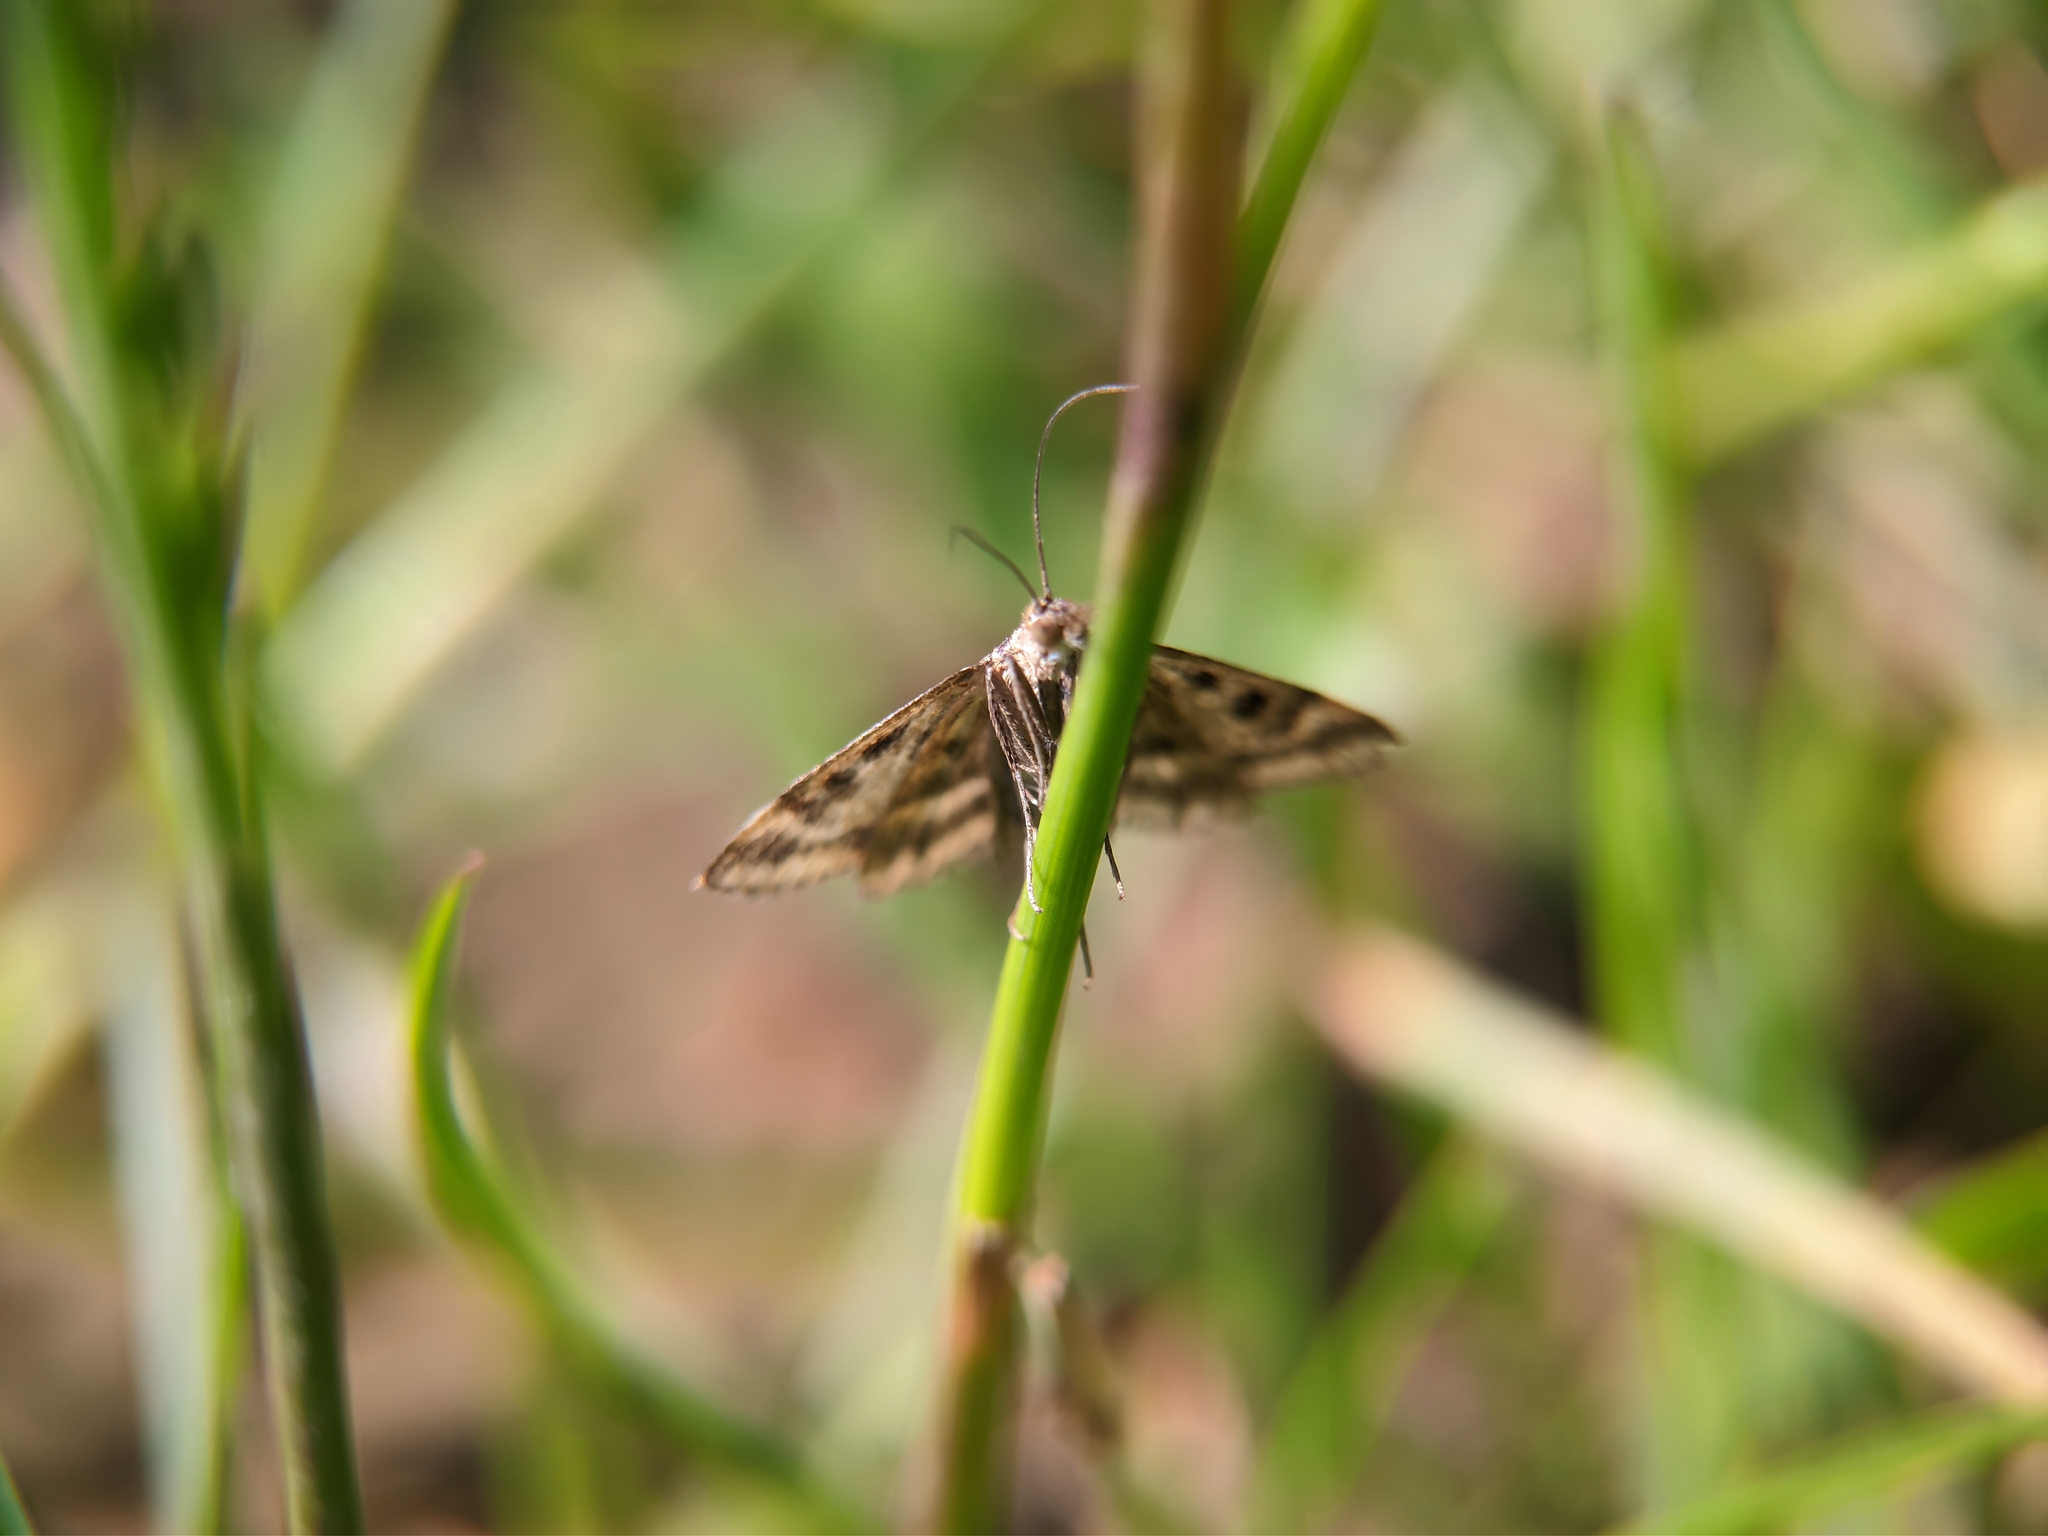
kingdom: Animalia
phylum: Arthropoda
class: Insecta
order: Lepidoptera
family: Crambidae
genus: Pyrausta
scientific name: Pyrausta despicata
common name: Straw-barred pearl
